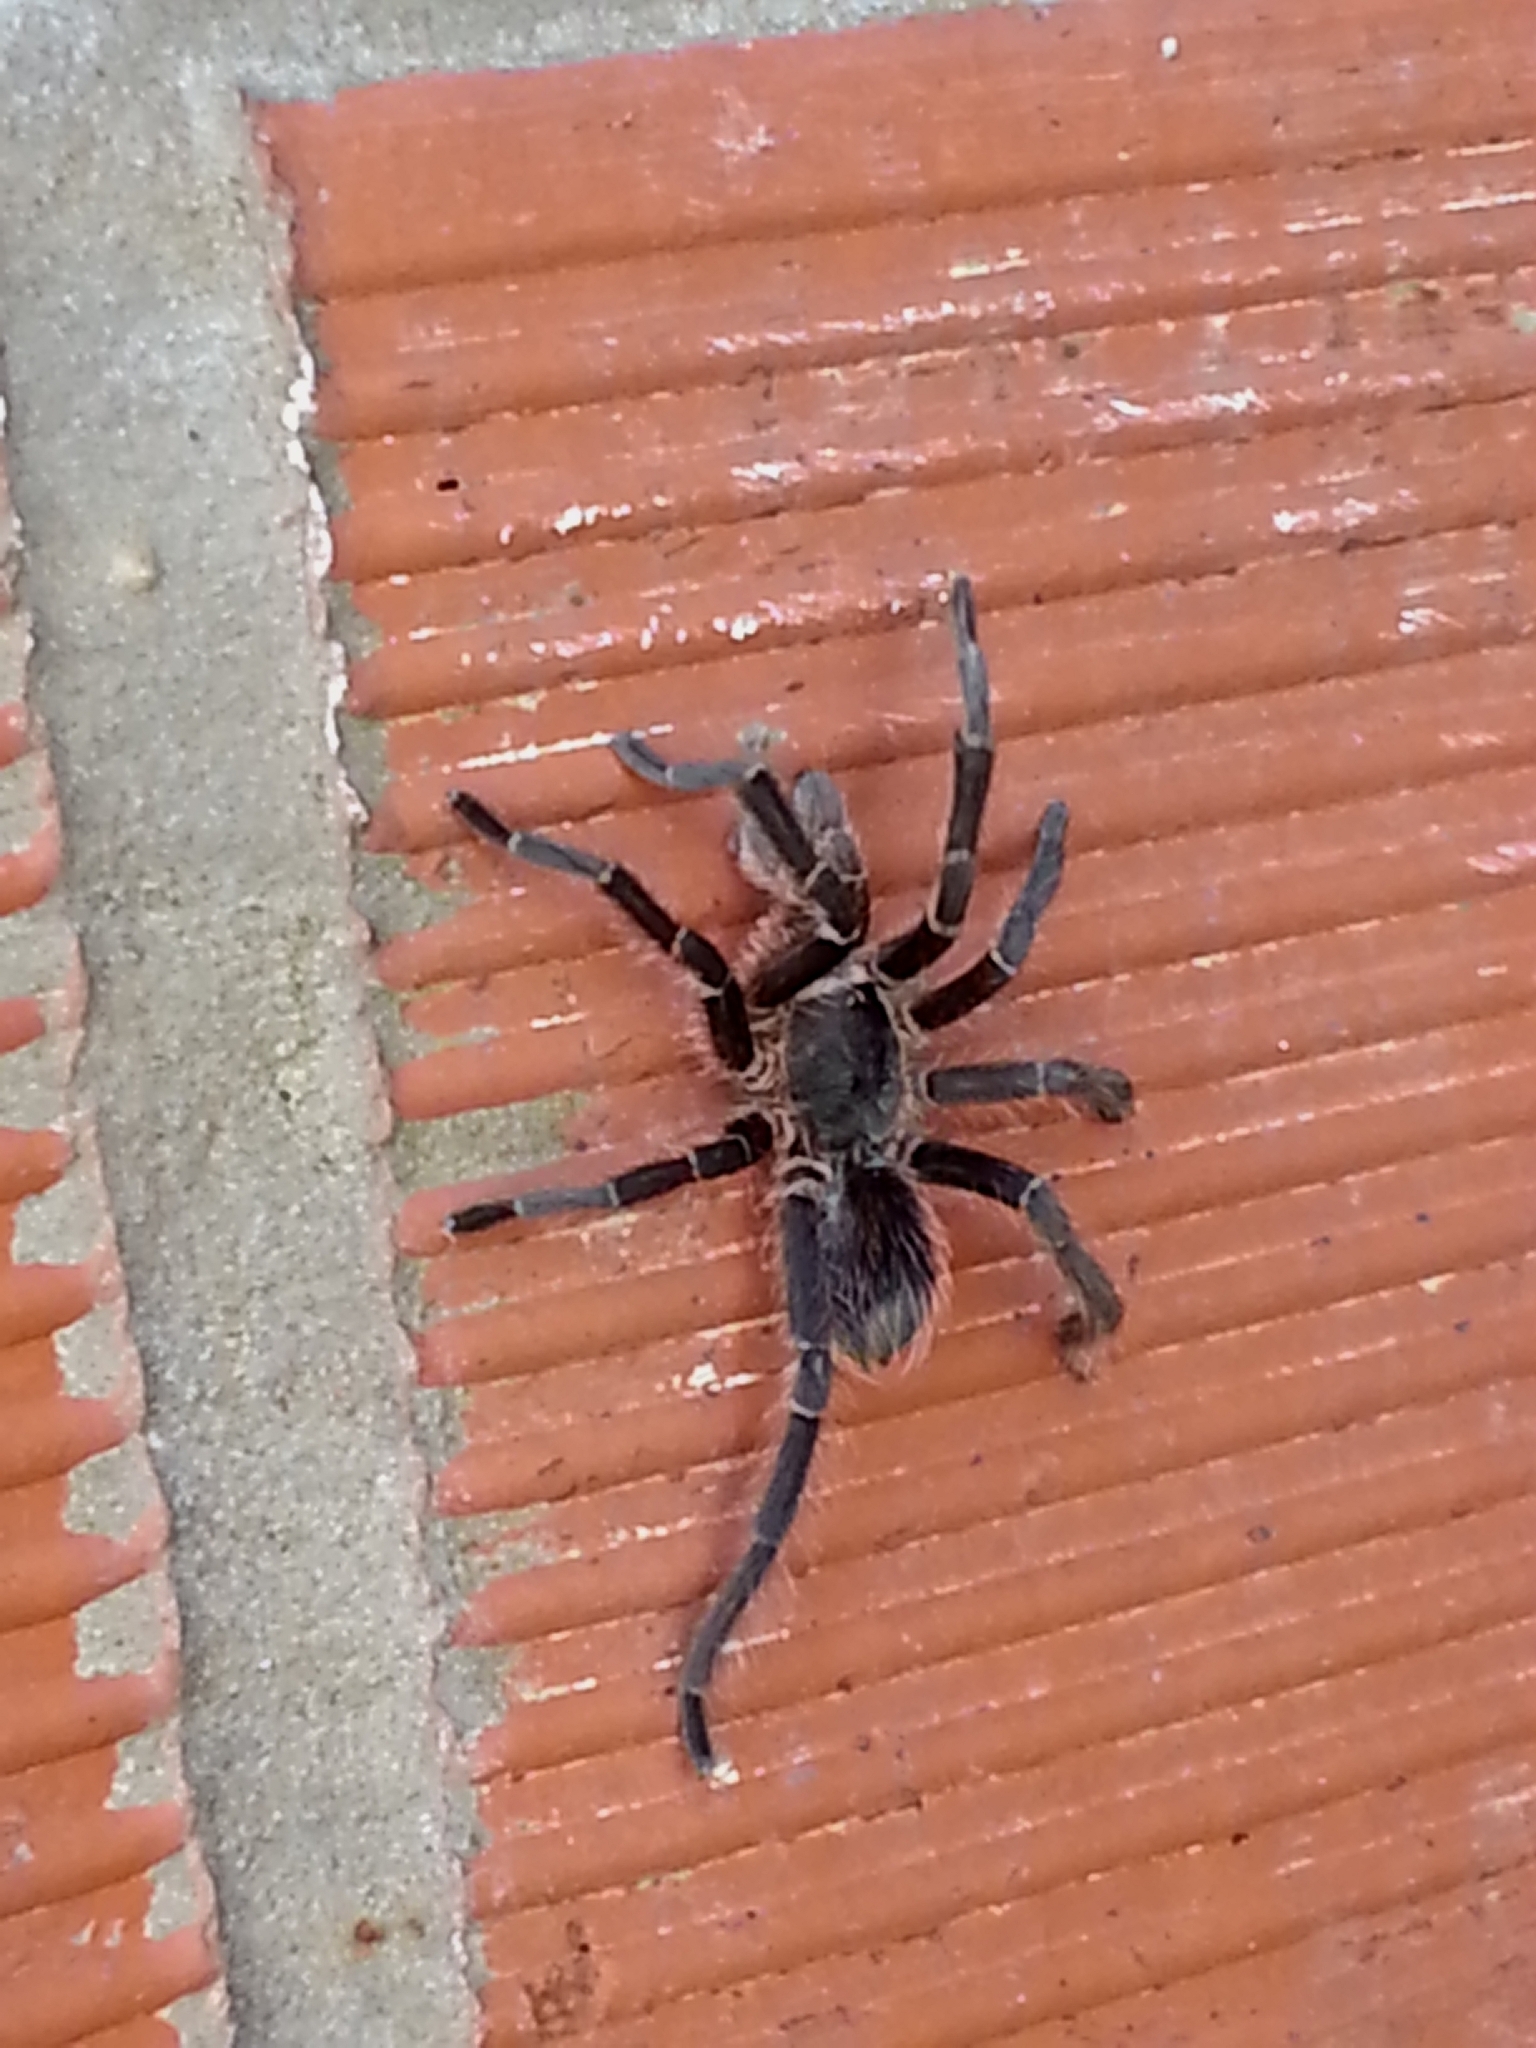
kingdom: Animalia
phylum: Arthropoda
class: Arachnida
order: Araneae
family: Theraphosidae
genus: Eupalaestrus
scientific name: Eupalaestrus weijenberghi
